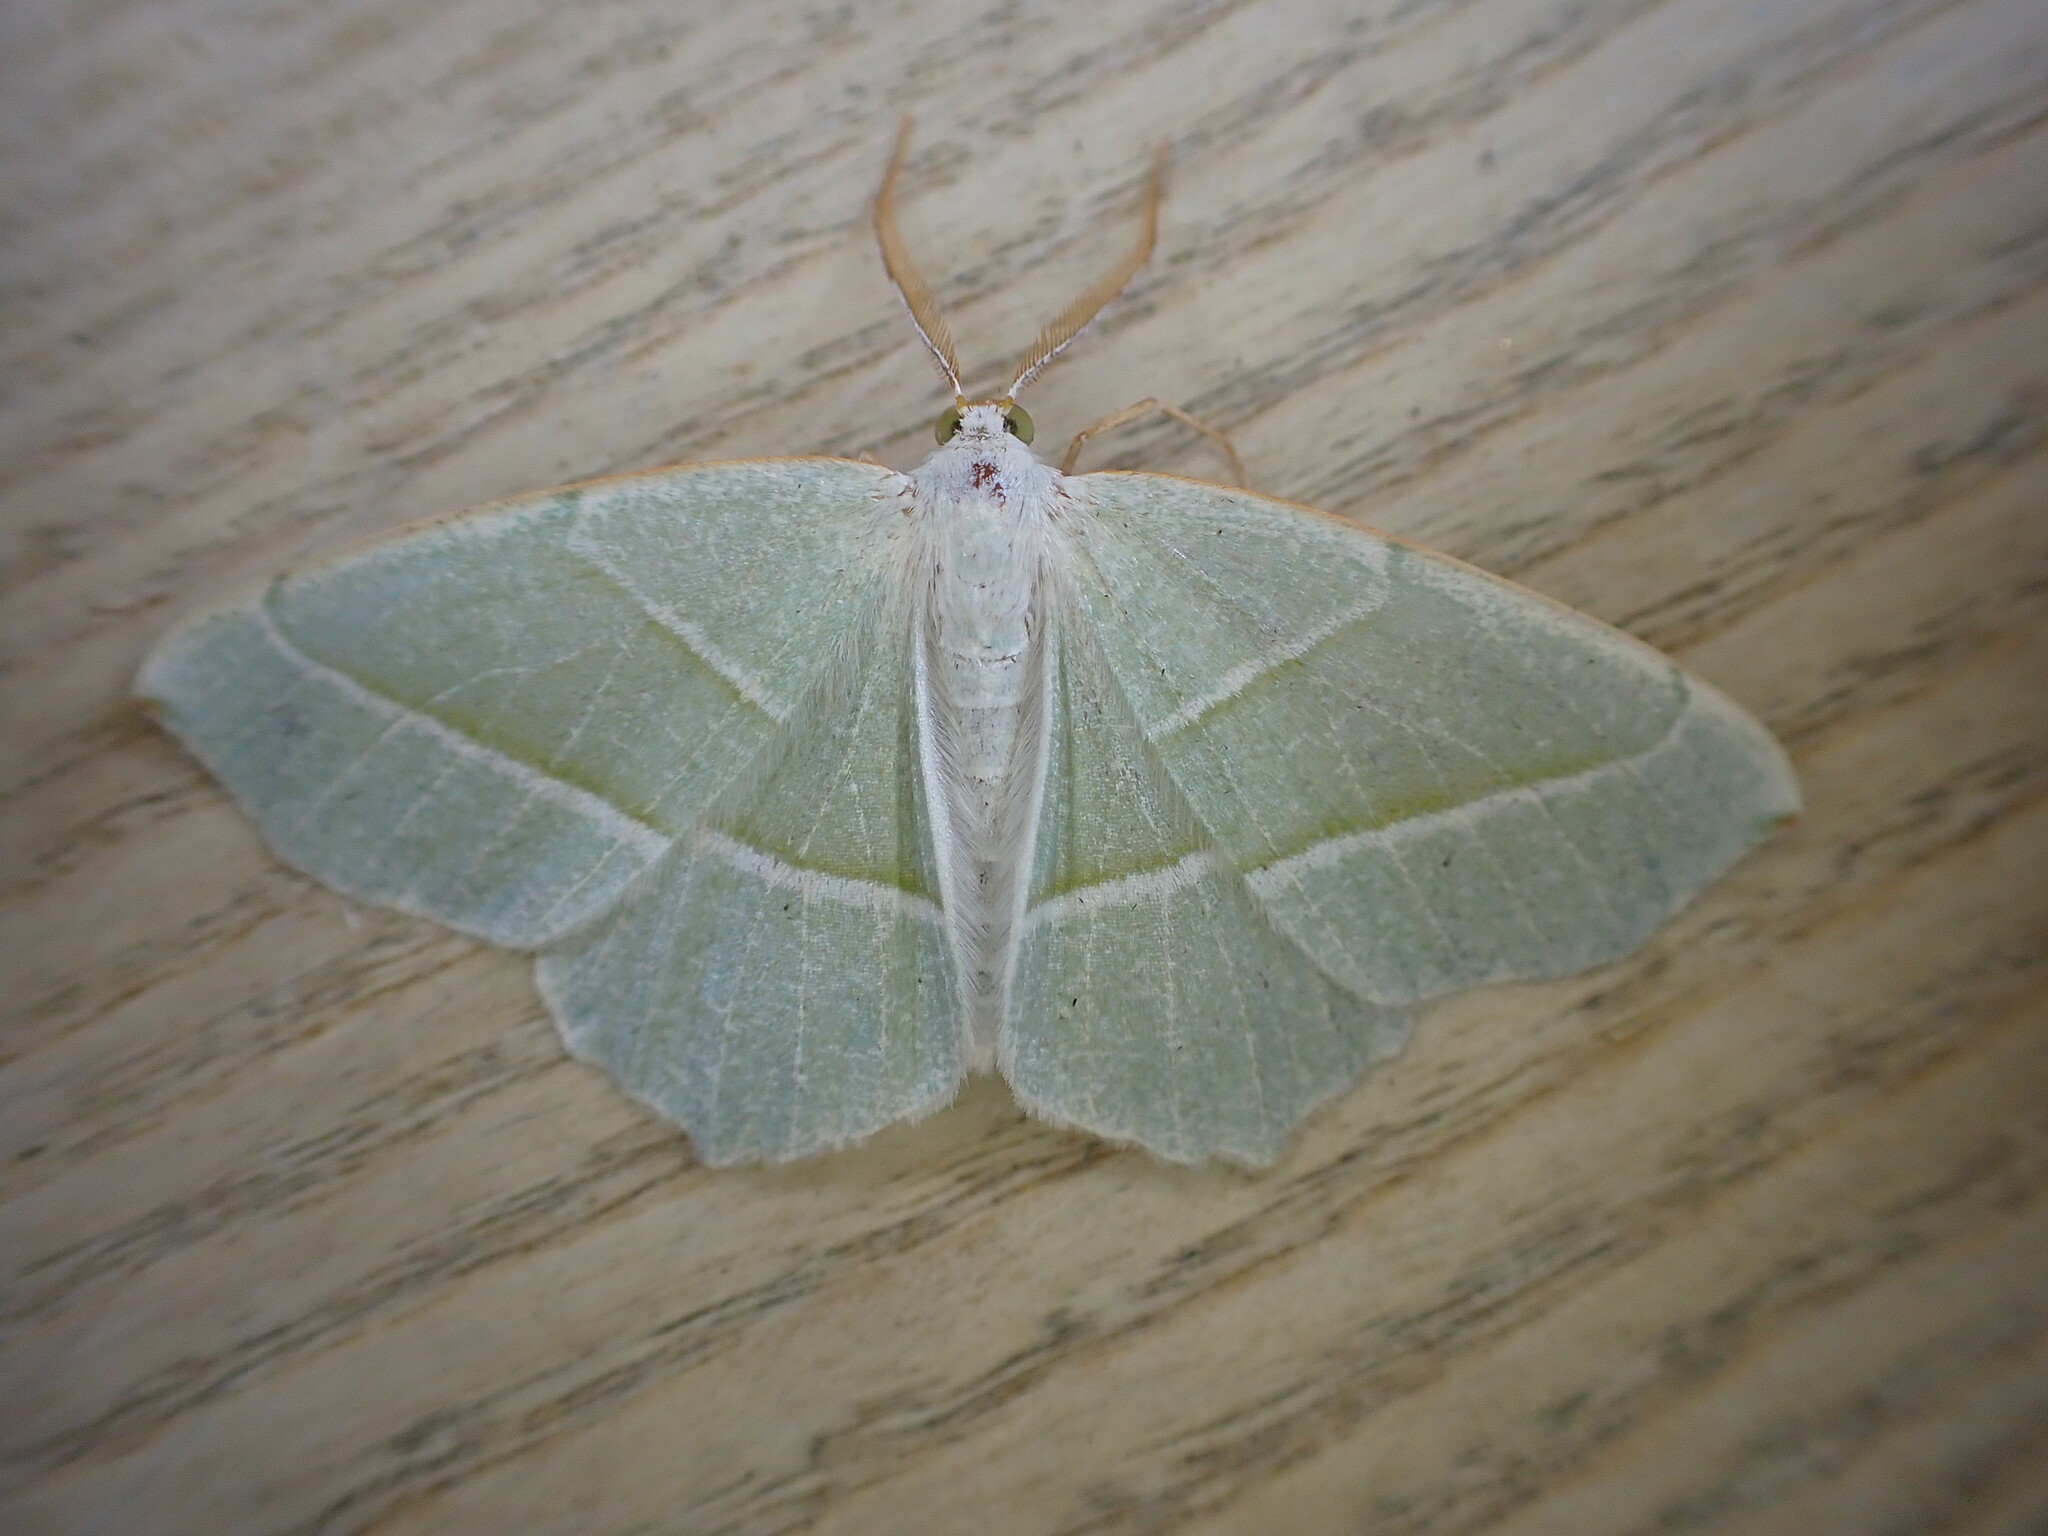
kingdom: Animalia
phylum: Arthropoda
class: Insecta
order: Lepidoptera
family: Geometridae
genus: Campaea
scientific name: Campaea margaritaria
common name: Light emerald
